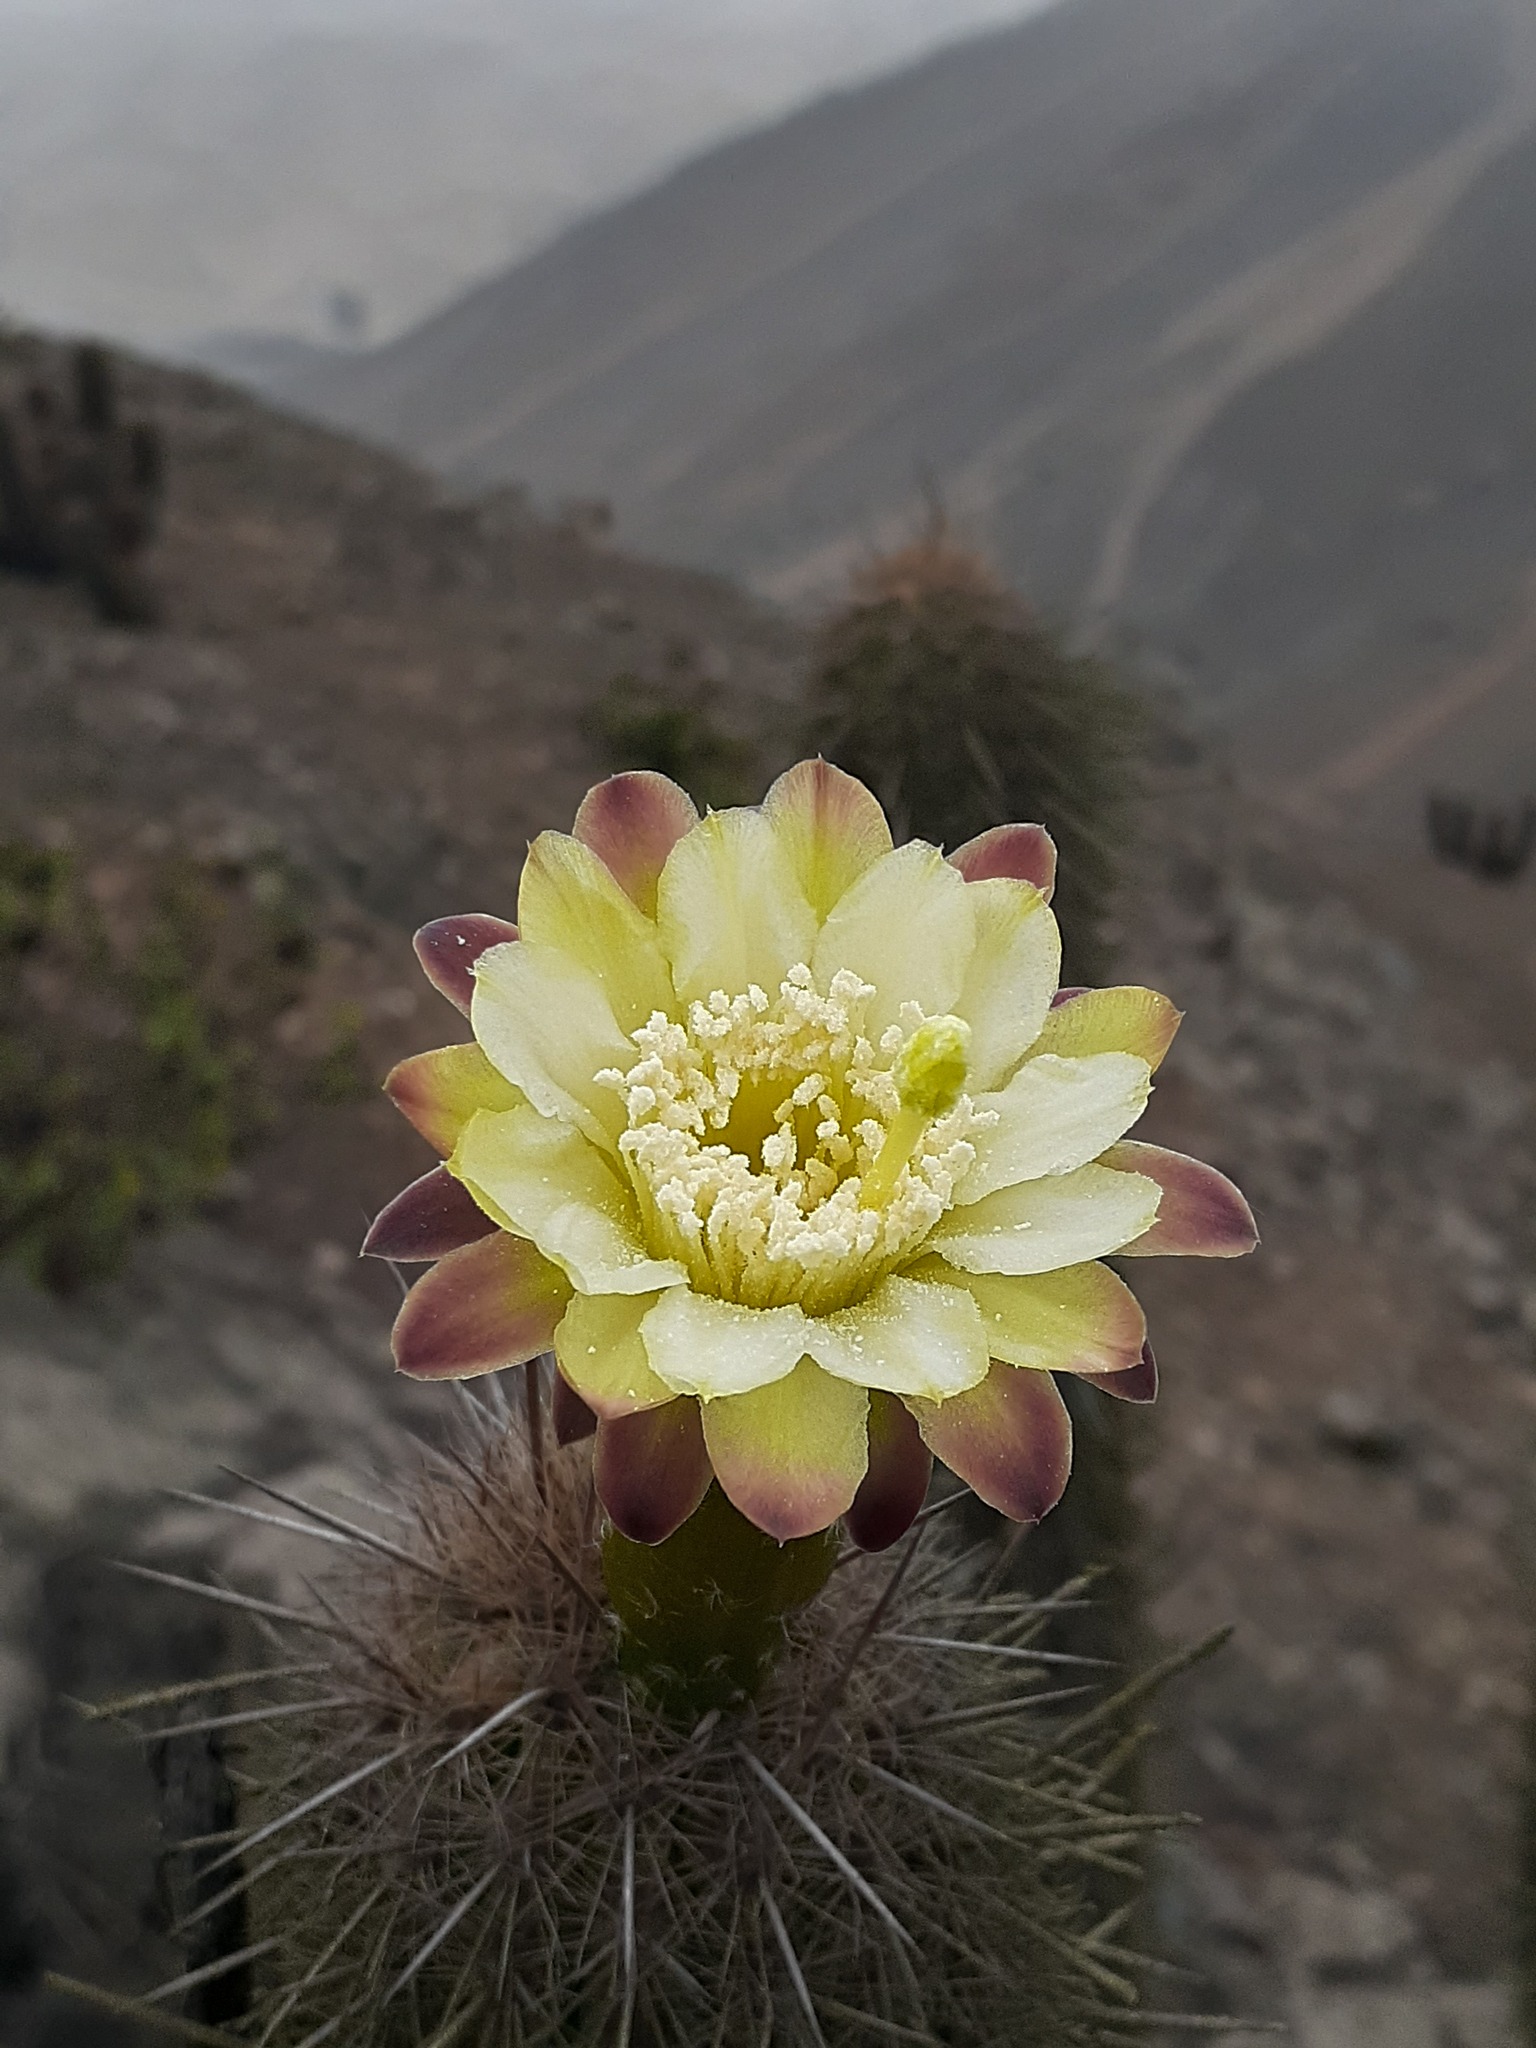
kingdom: Plantae
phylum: Tracheophyta
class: Magnoliopsida
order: Caryophyllales
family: Cactaceae
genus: Haageocereus
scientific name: Haageocereus acranthus
